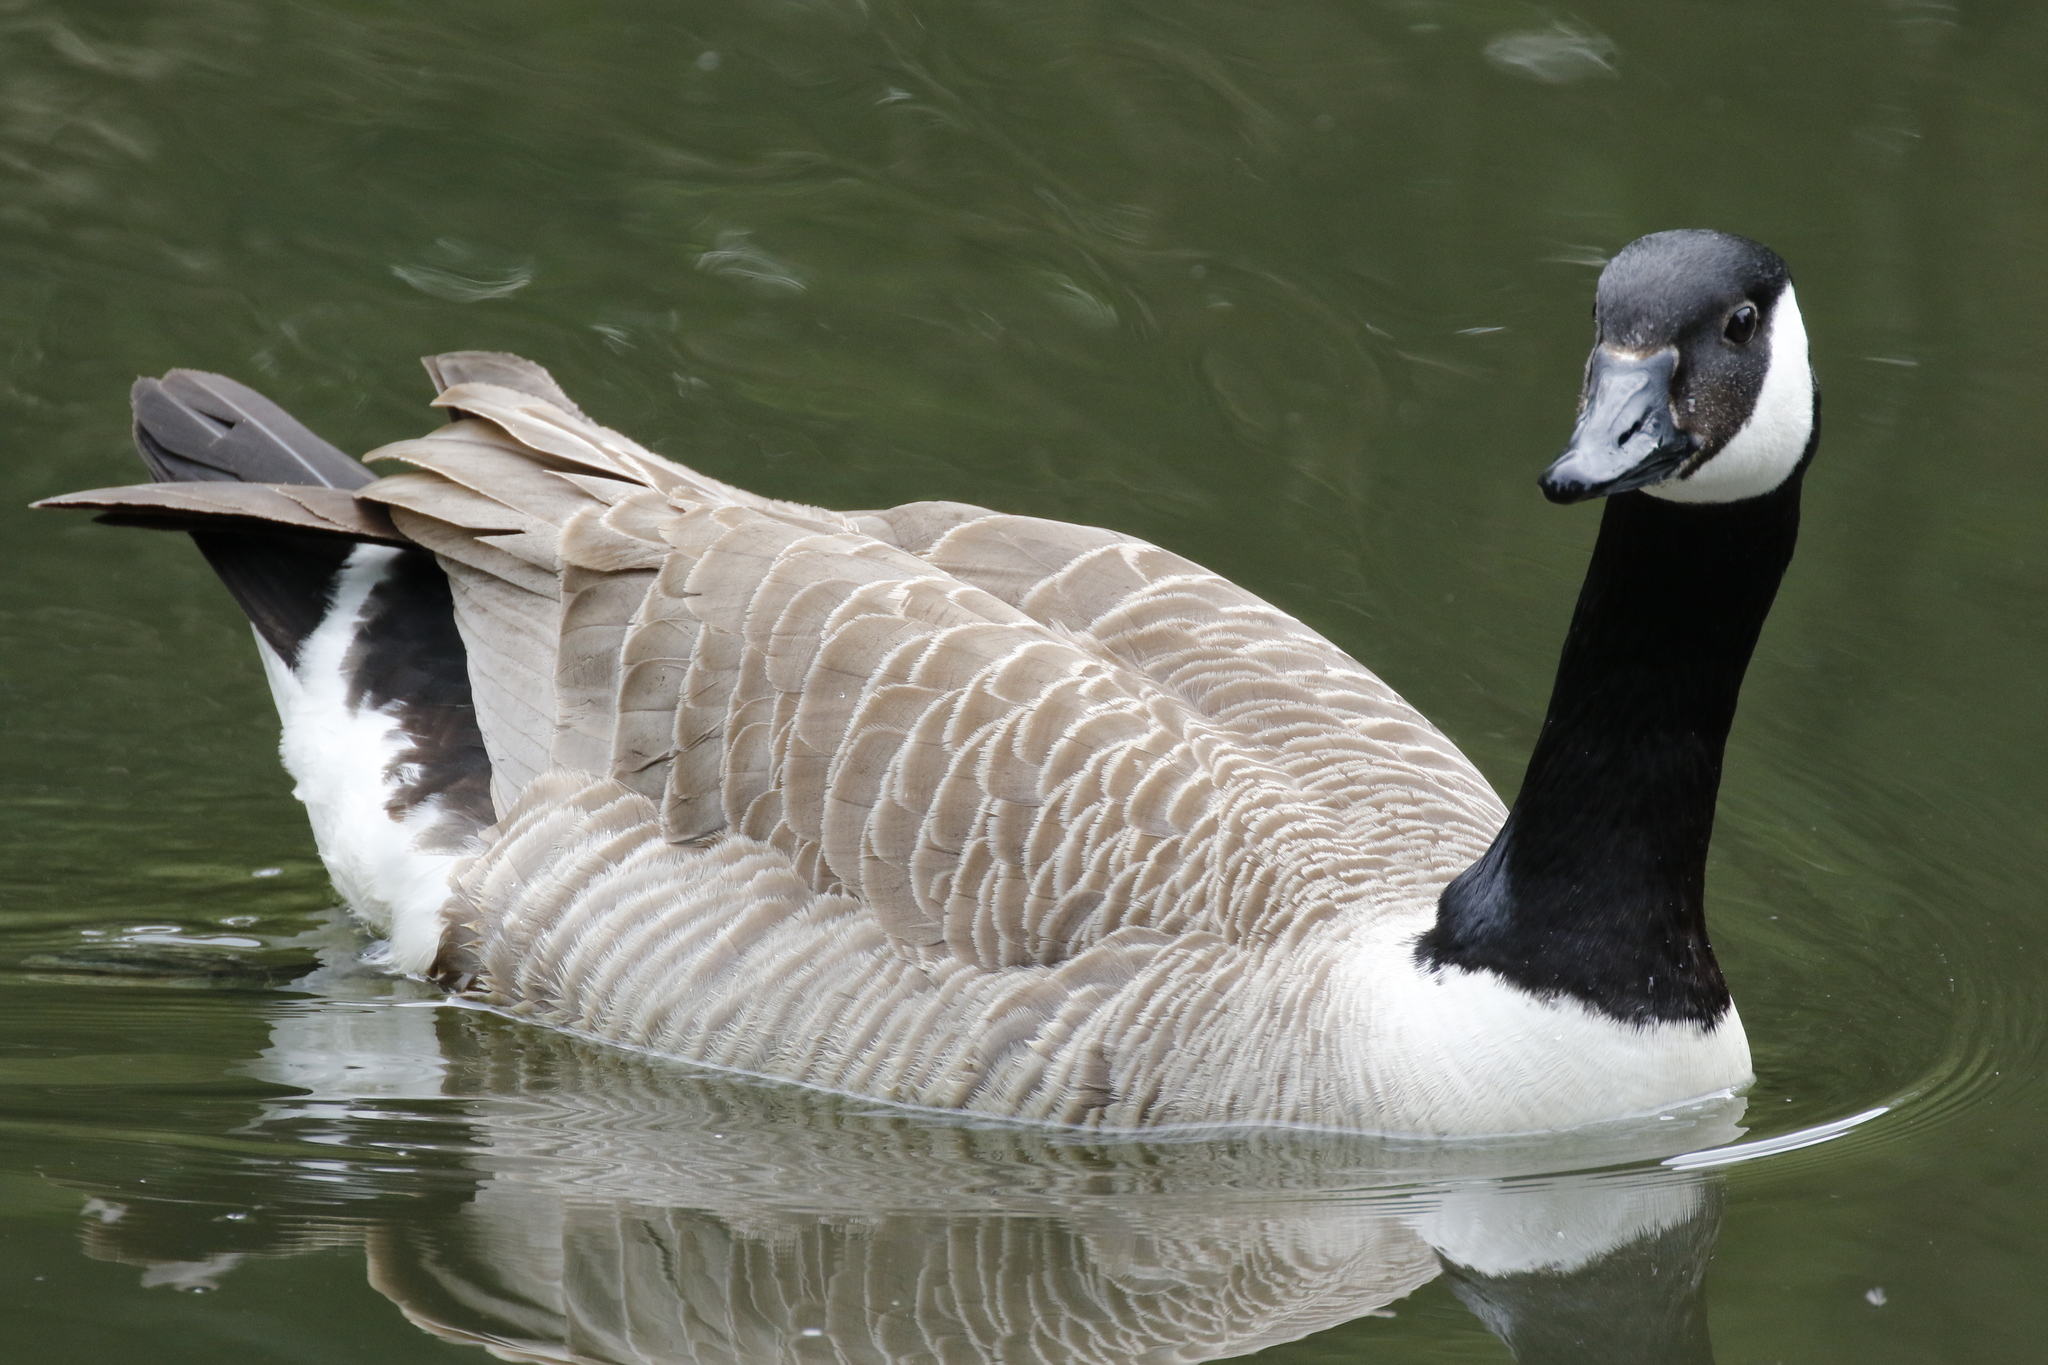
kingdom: Animalia
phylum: Chordata
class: Aves
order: Anseriformes
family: Anatidae
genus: Branta
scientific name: Branta canadensis
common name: Canada goose
